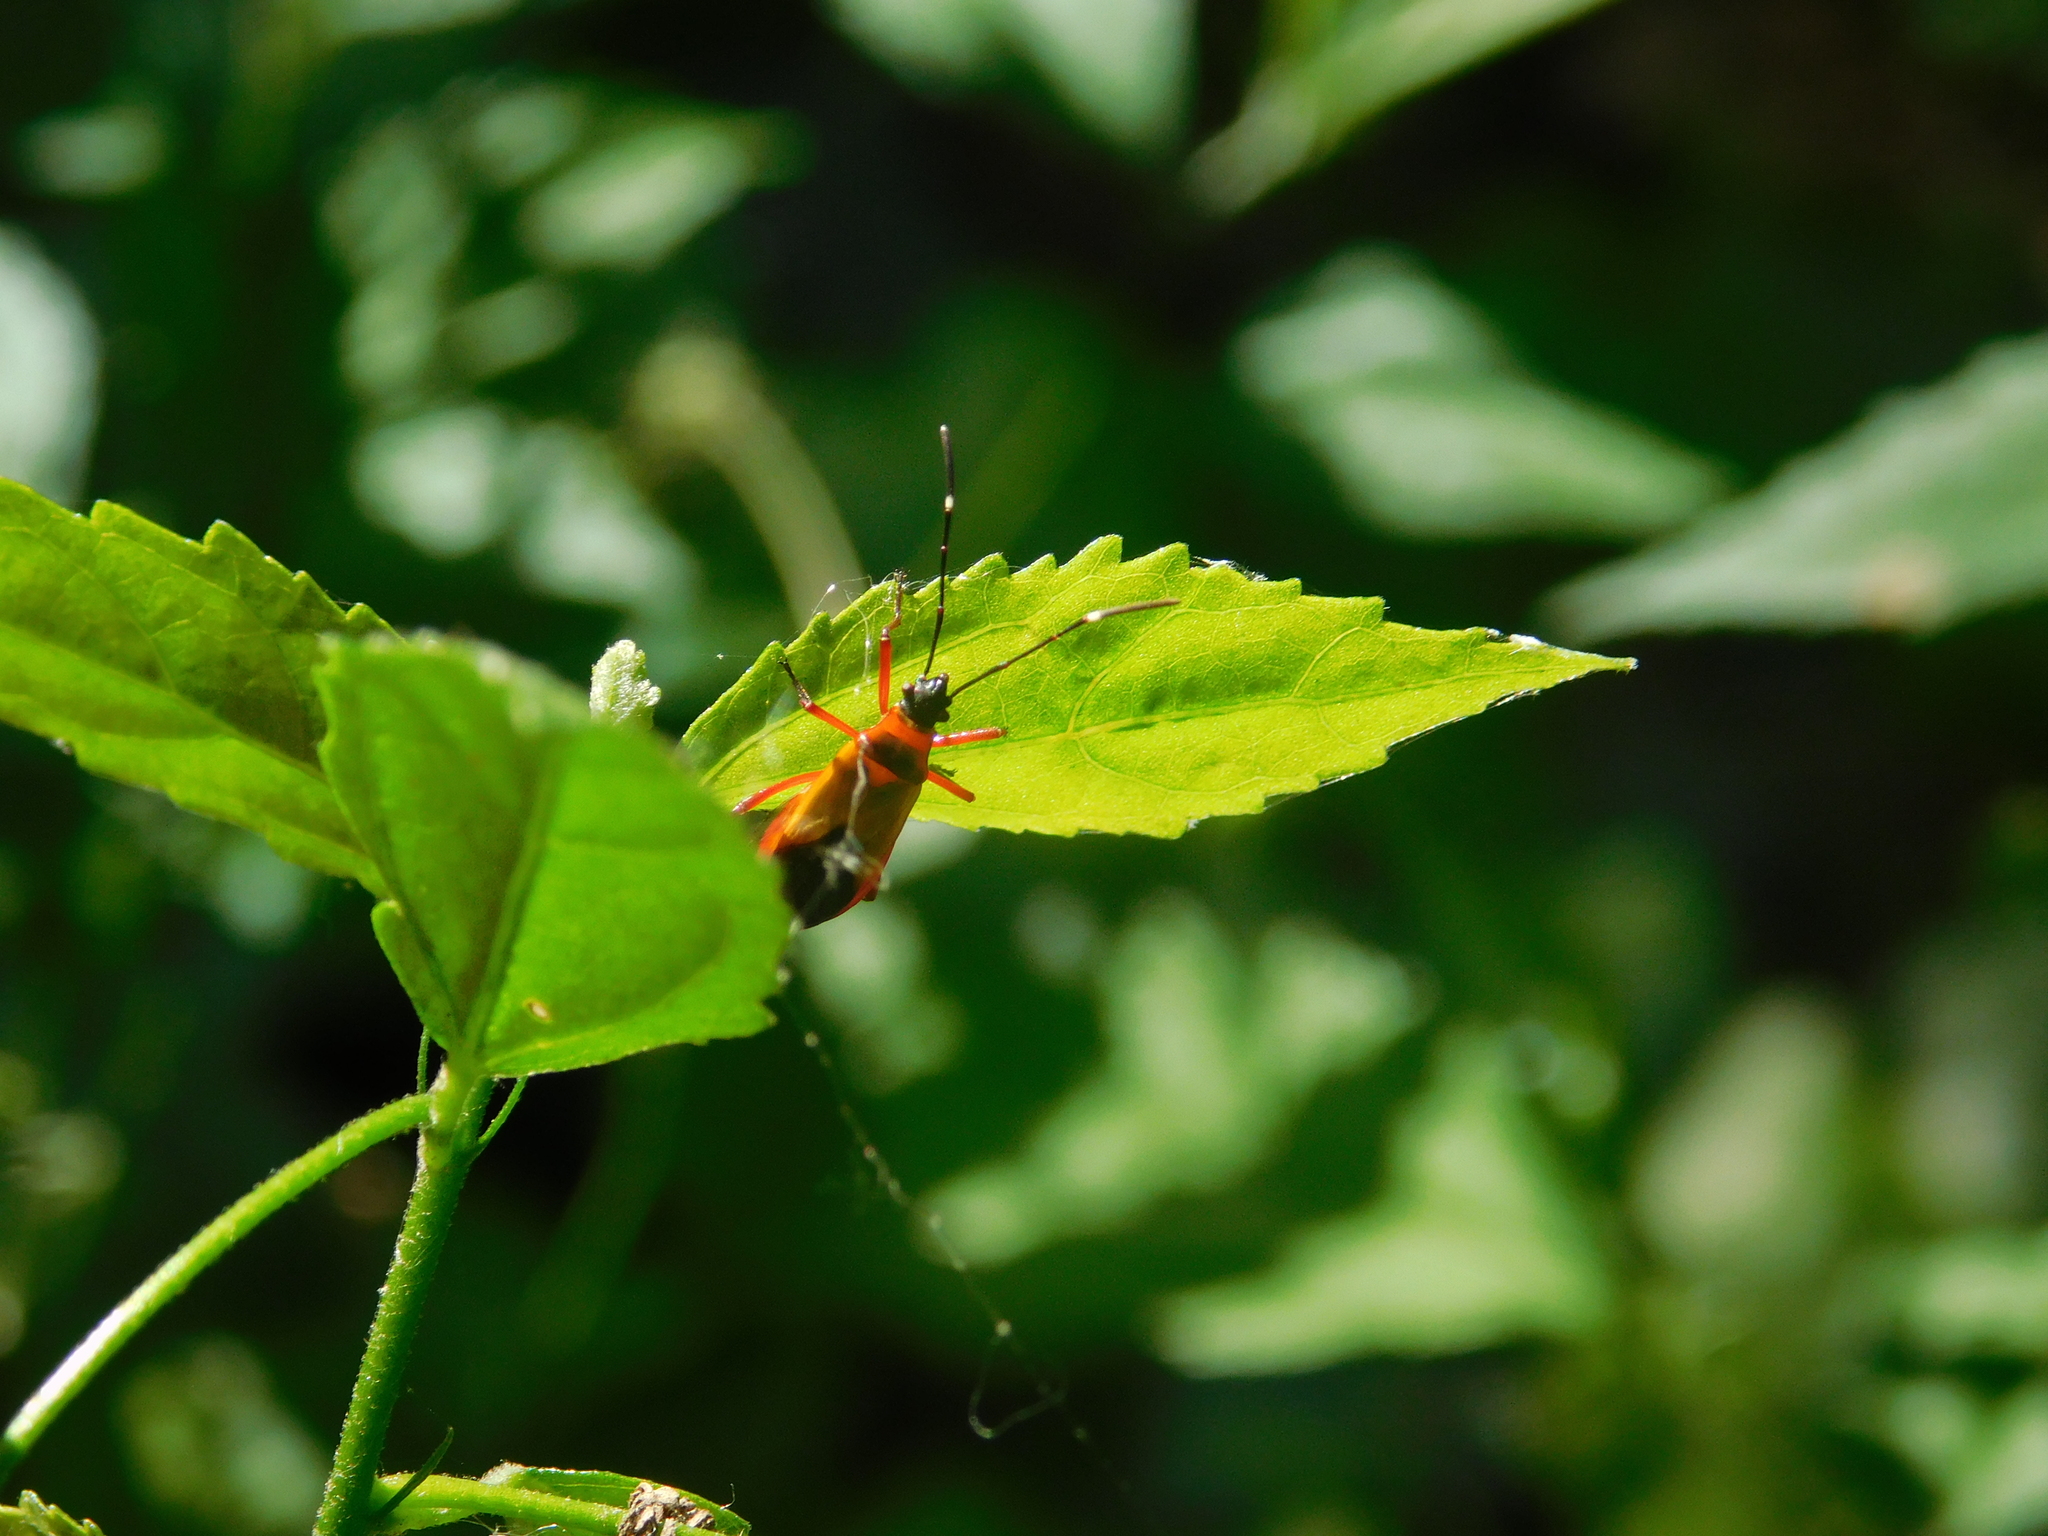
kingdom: Animalia
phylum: Arthropoda
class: Insecta
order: Hemiptera
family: Pyrrhocoridae
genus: Dysdercus
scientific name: Dysdercus
